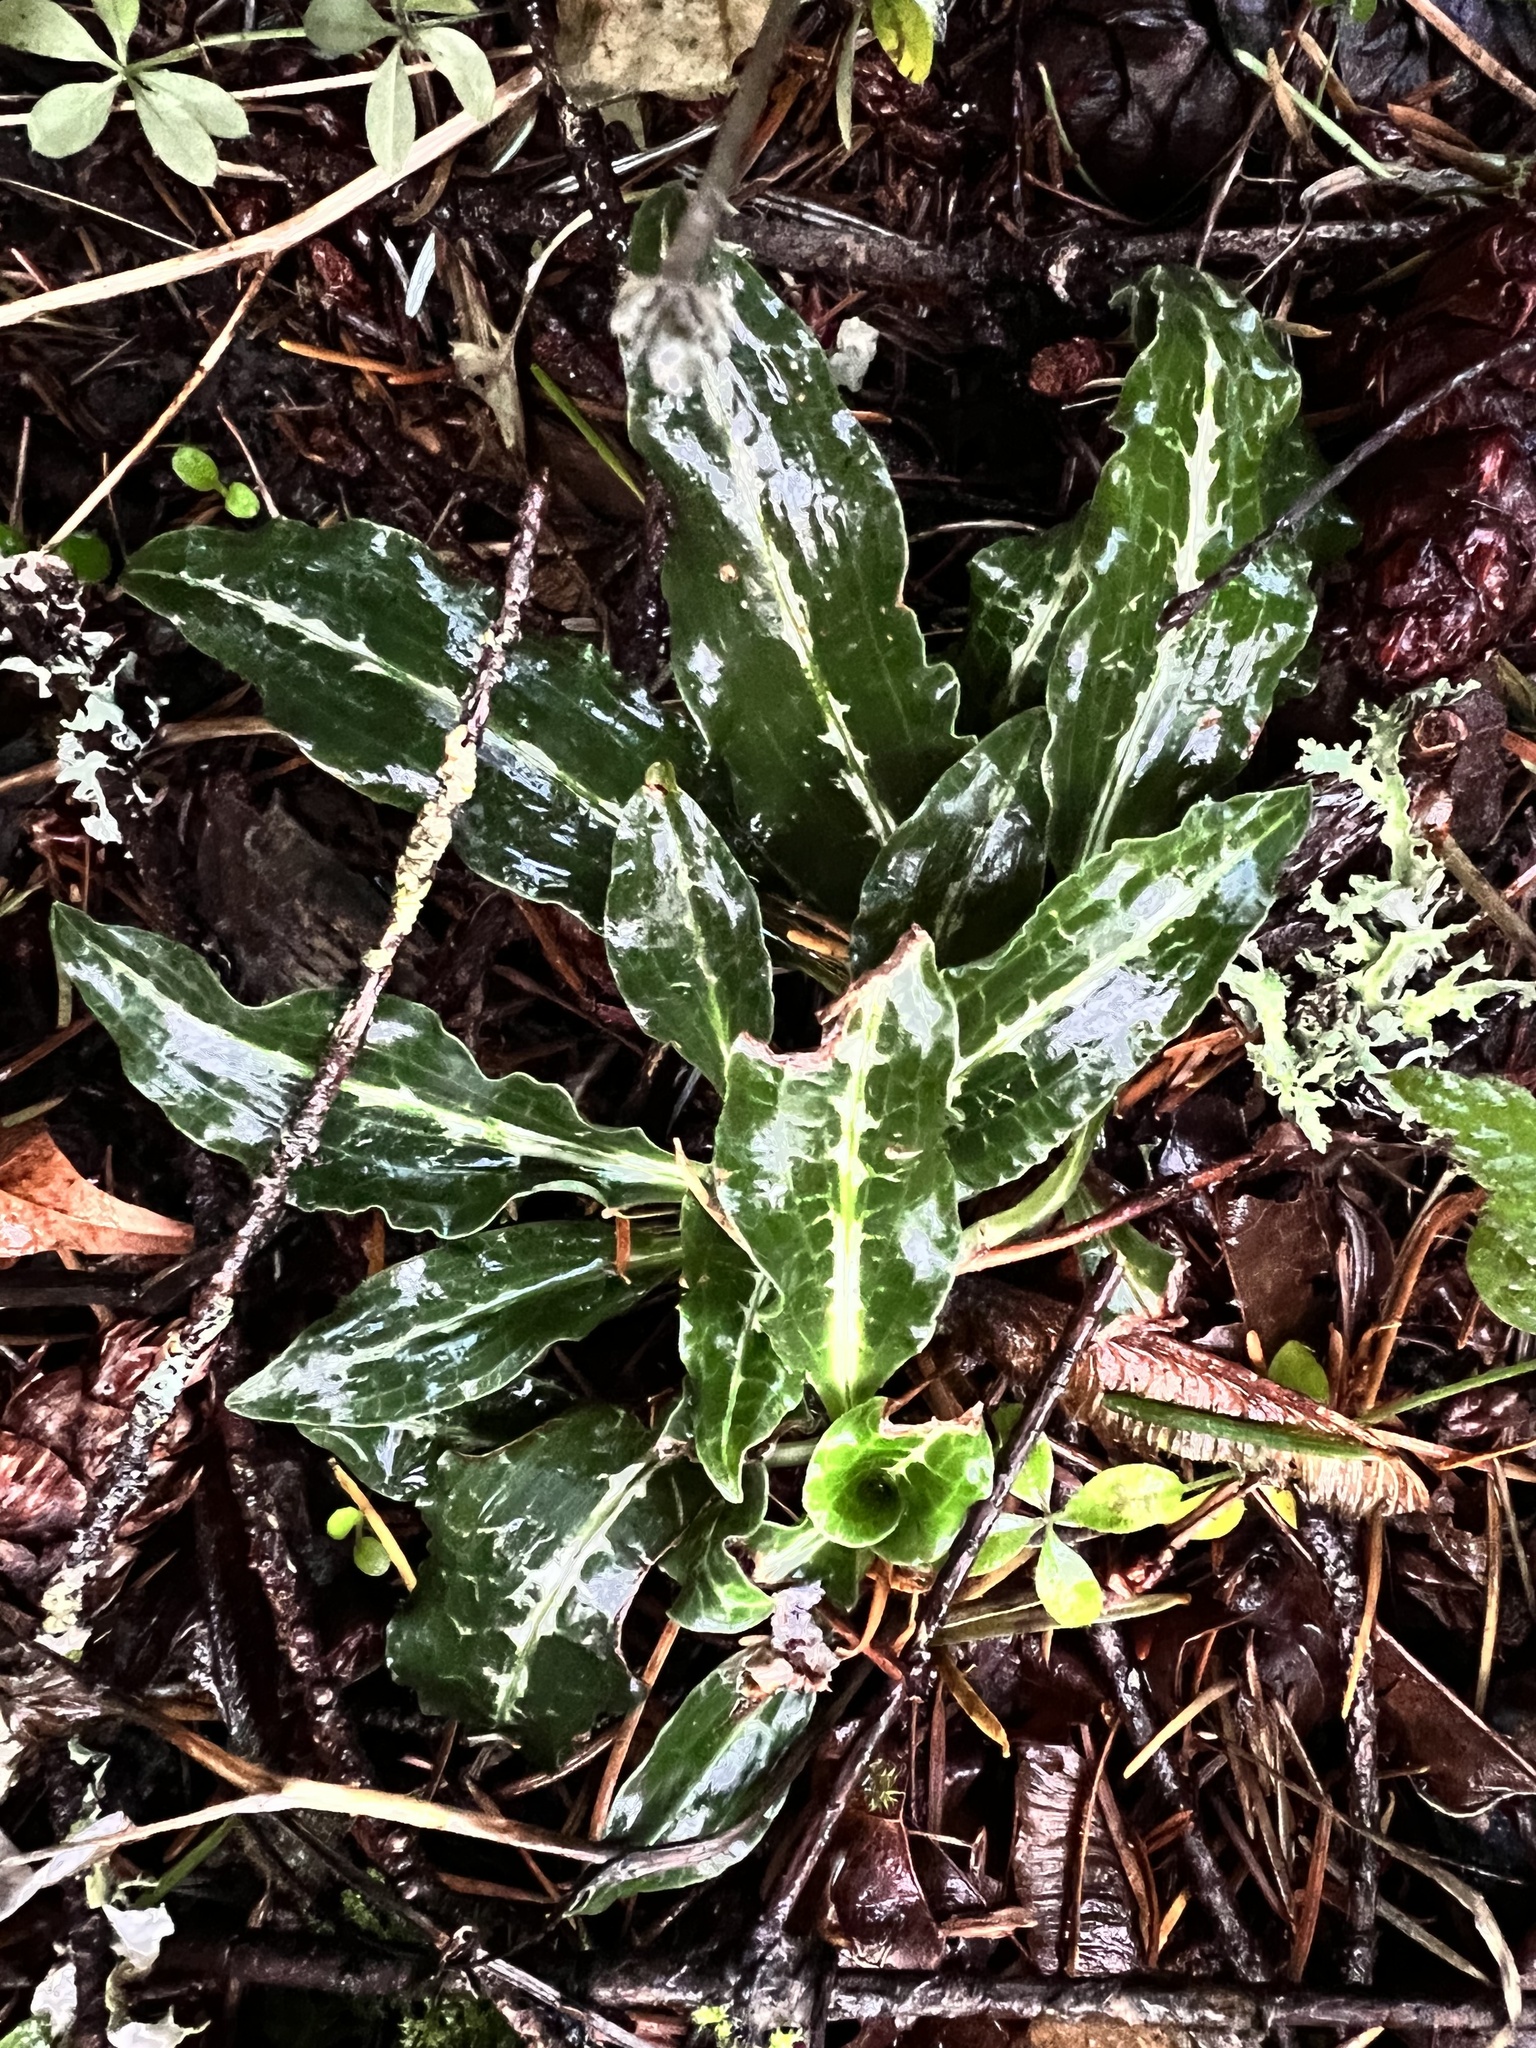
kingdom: Plantae
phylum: Tracheophyta
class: Liliopsida
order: Asparagales
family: Orchidaceae
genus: Goodyera
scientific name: Goodyera oblongifolia
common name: Giant rattlesnake-plantain
